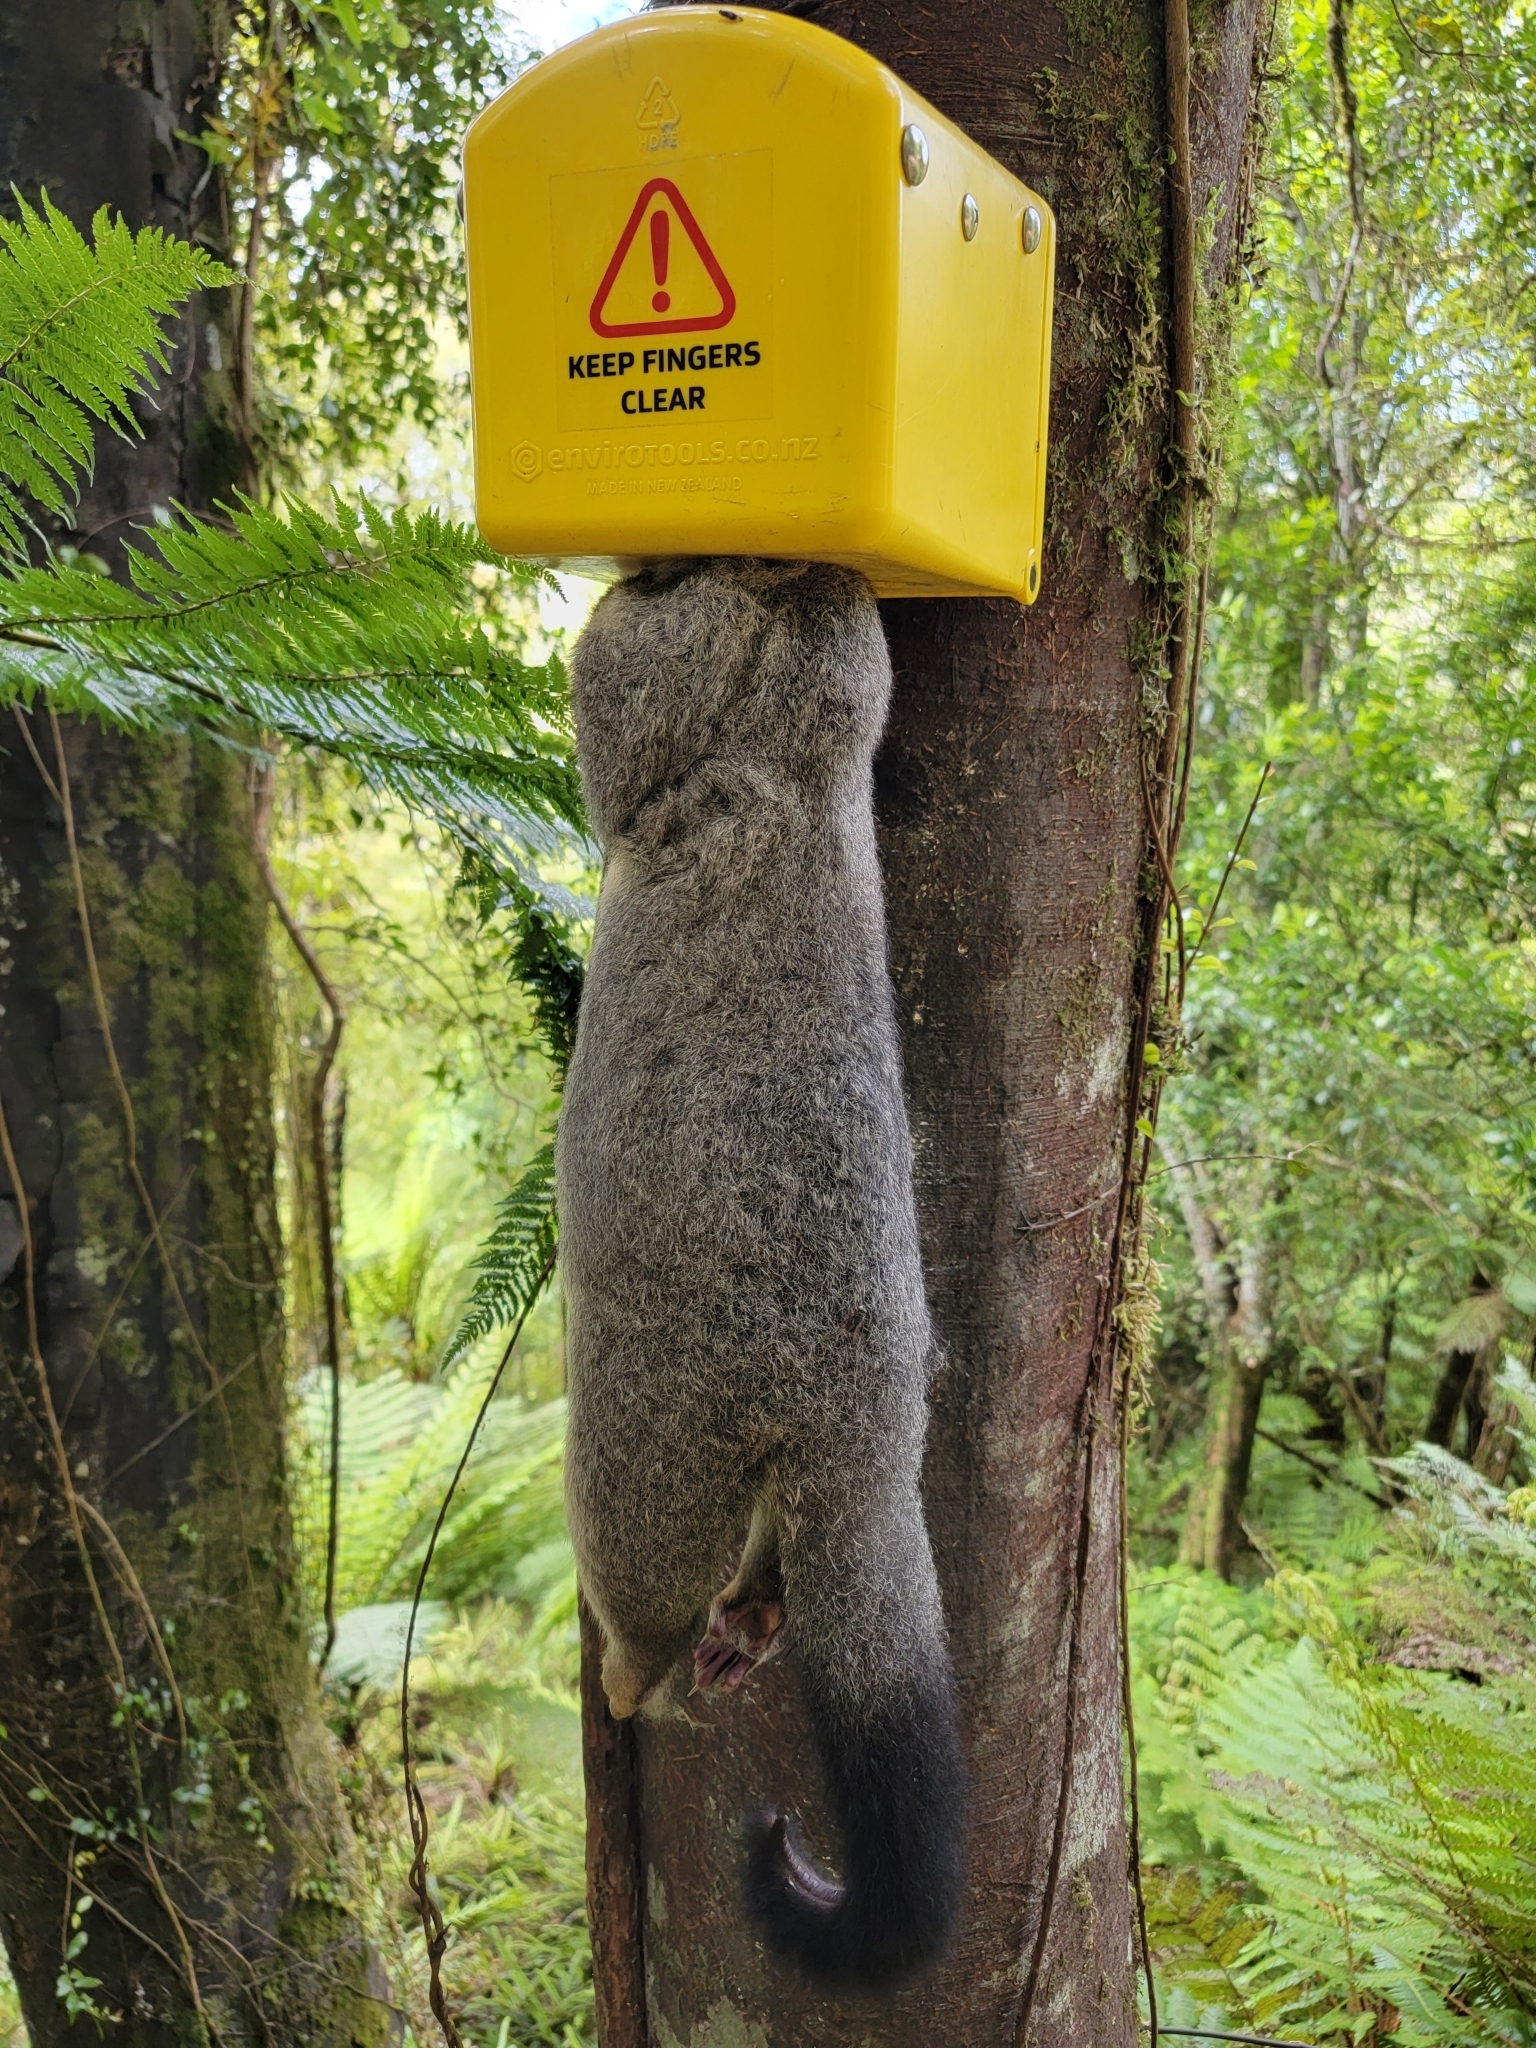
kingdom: Animalia
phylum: Chordata
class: Mammalia
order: Diprotodontia
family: Phalangeridae
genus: Trichosurus
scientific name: Trichosurus vulpecula
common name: Common brushtail
